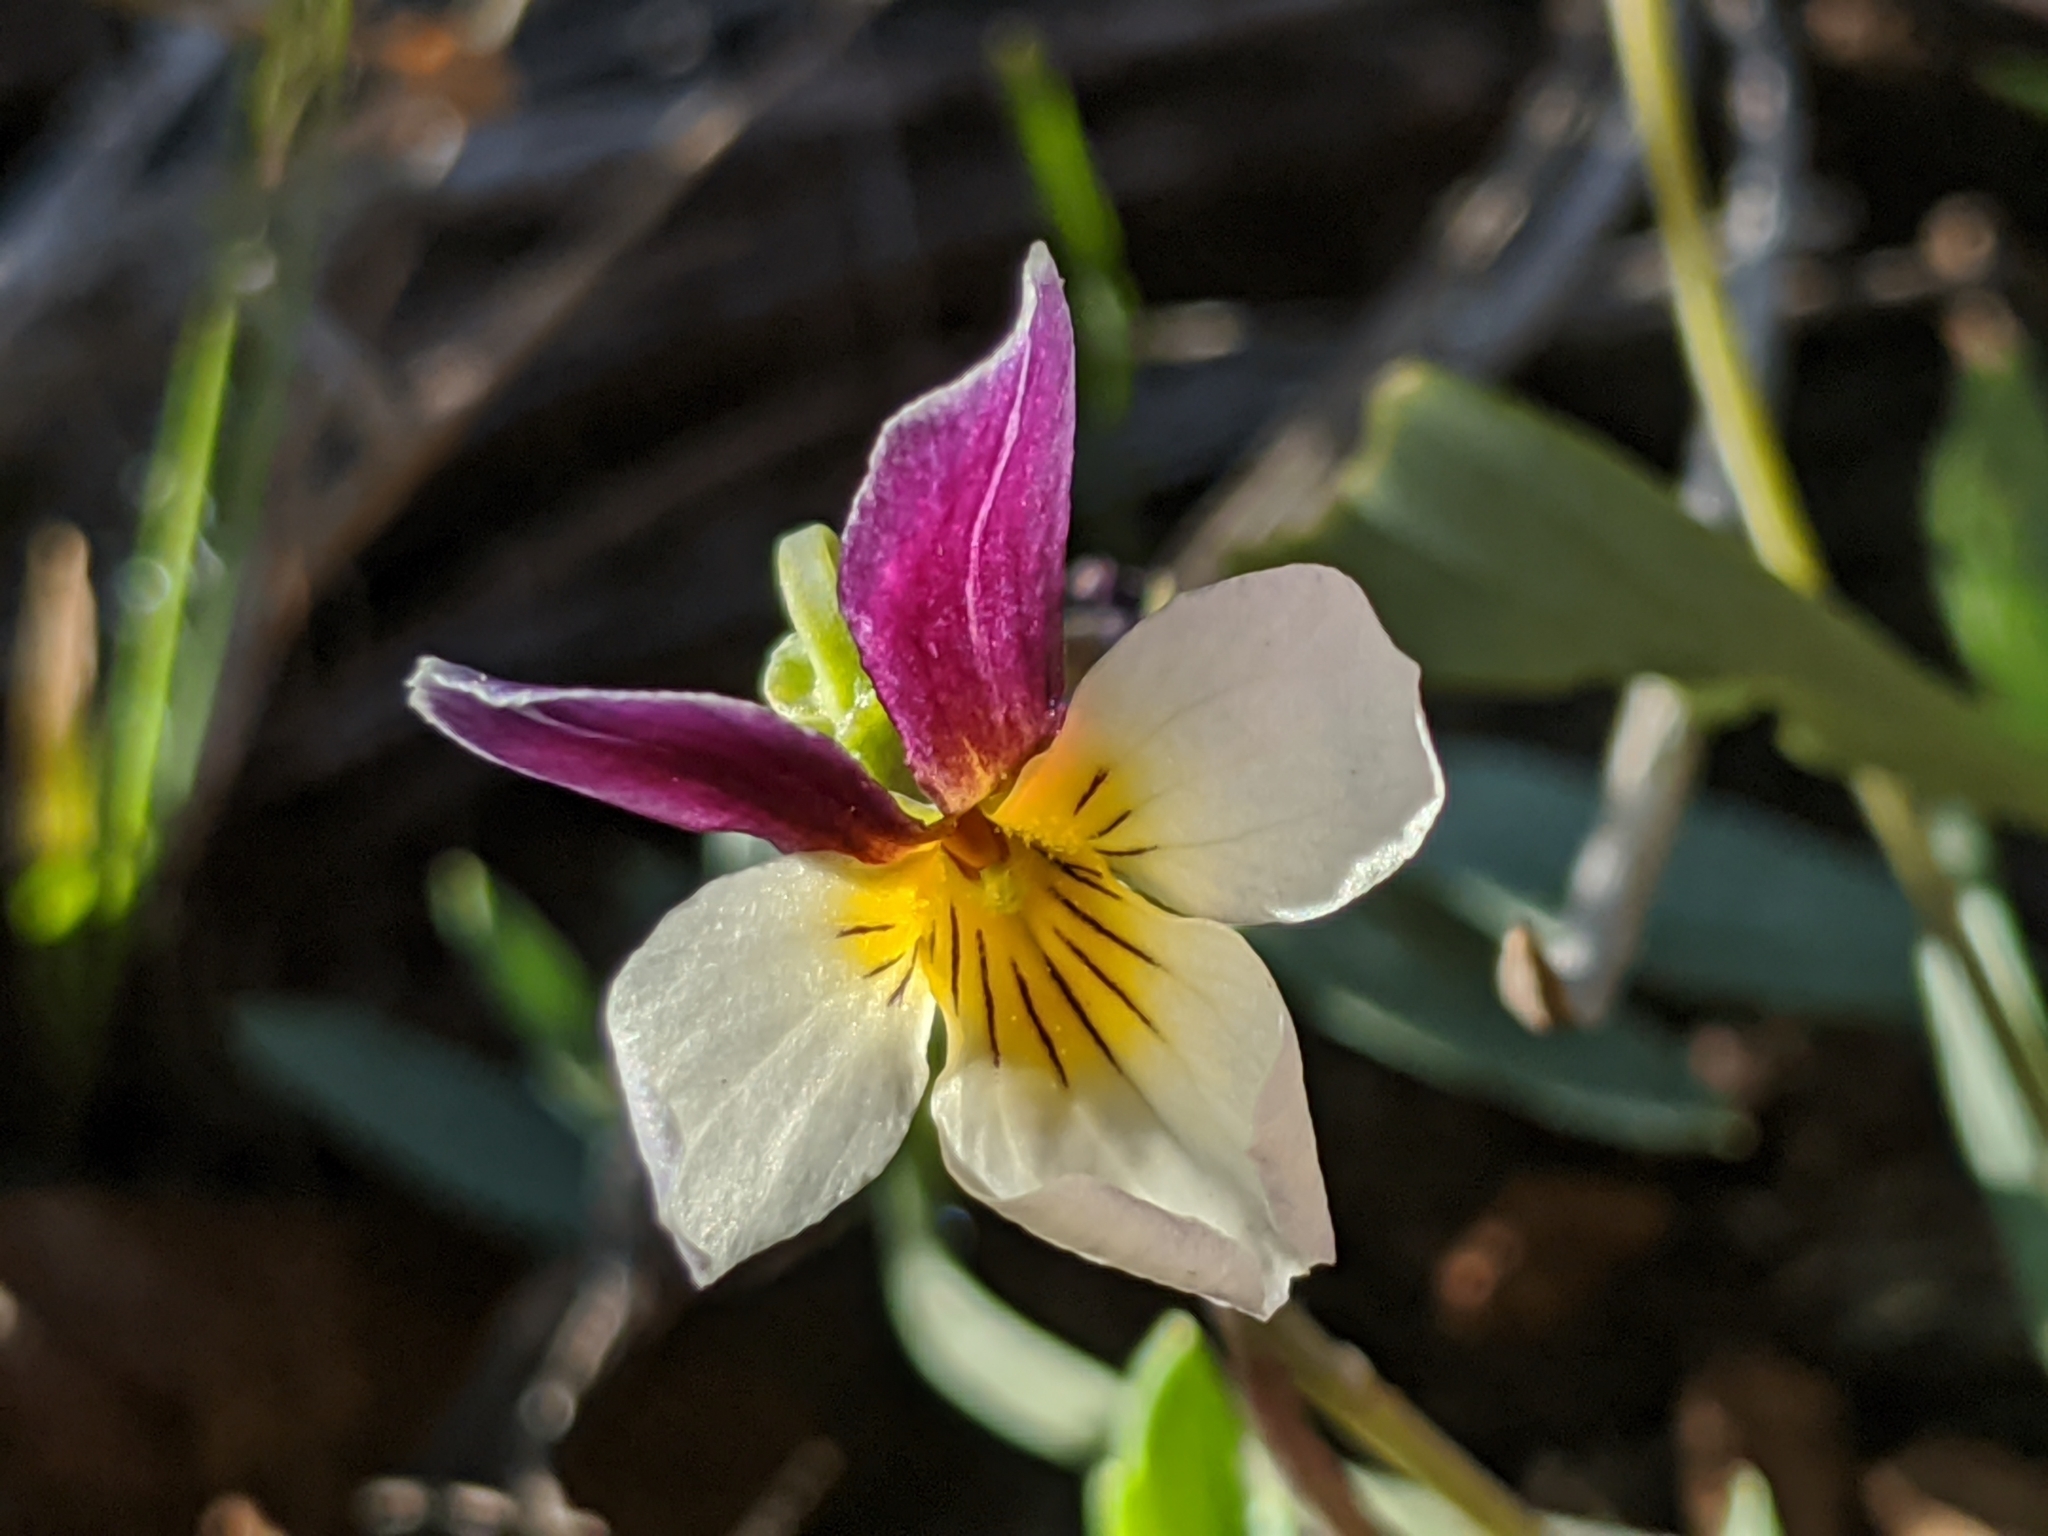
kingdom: Plantae
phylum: Tracheophyta
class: Magnoliopsida
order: Malpighiales
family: Violaceae
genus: Viola
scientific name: Viola hallii
